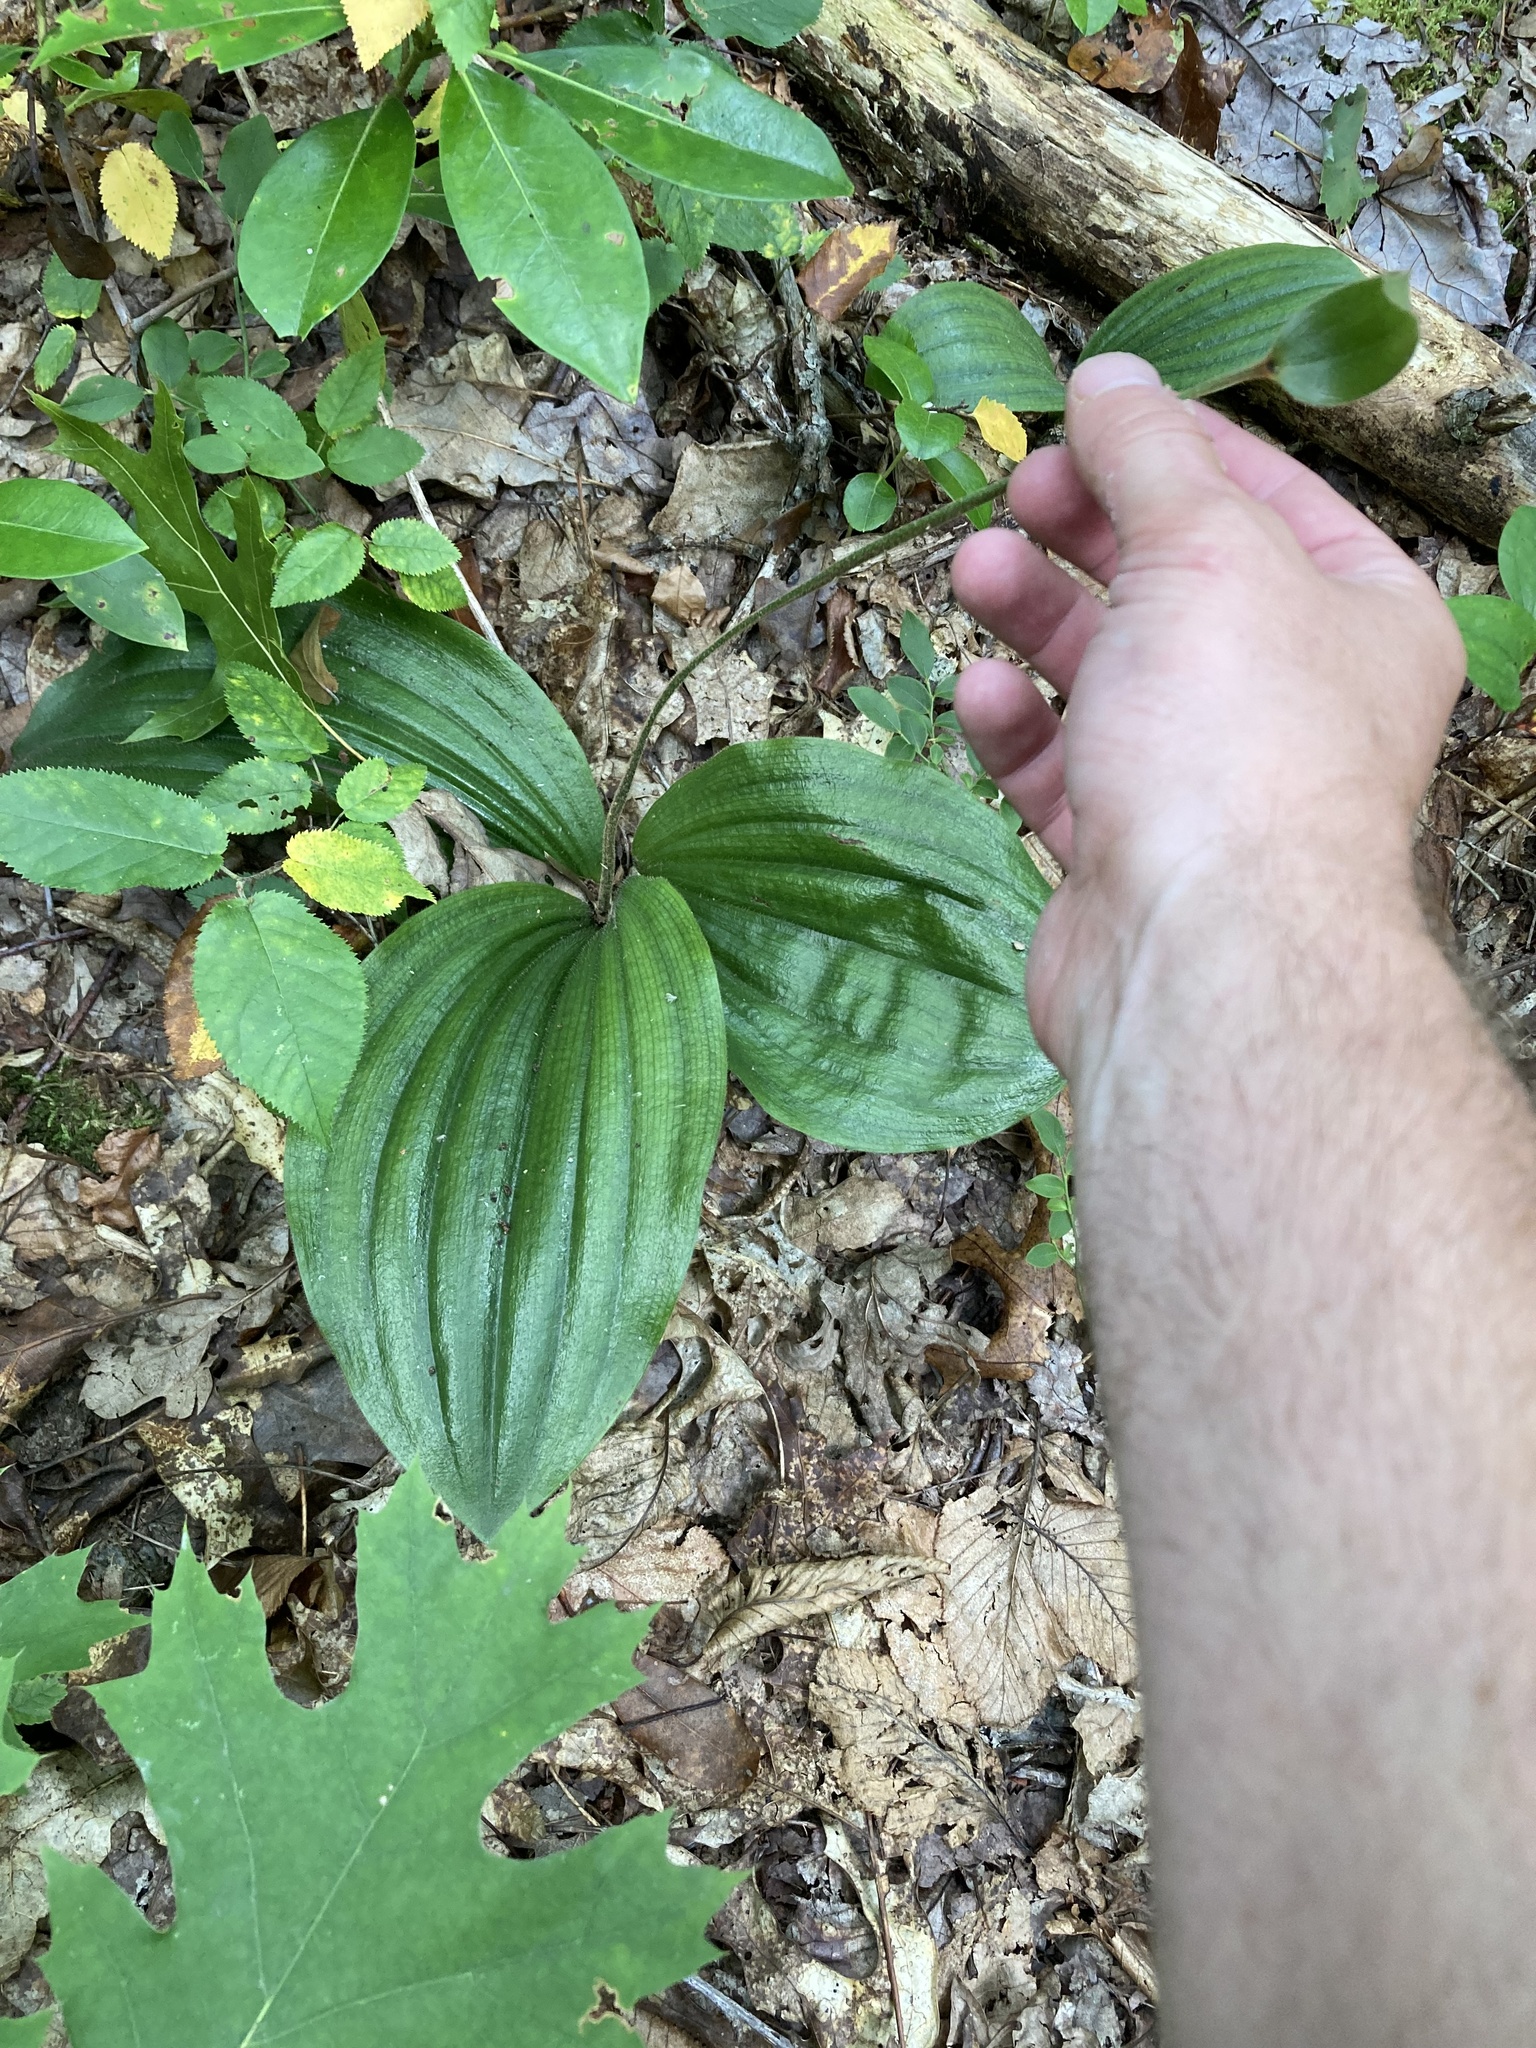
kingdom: Plantae
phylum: Tracheophyta
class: Liliopsida
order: Asparagales
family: Orchidaceae
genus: Cypripedium
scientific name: Cypripedium acaule
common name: Pink lady's-slipper
